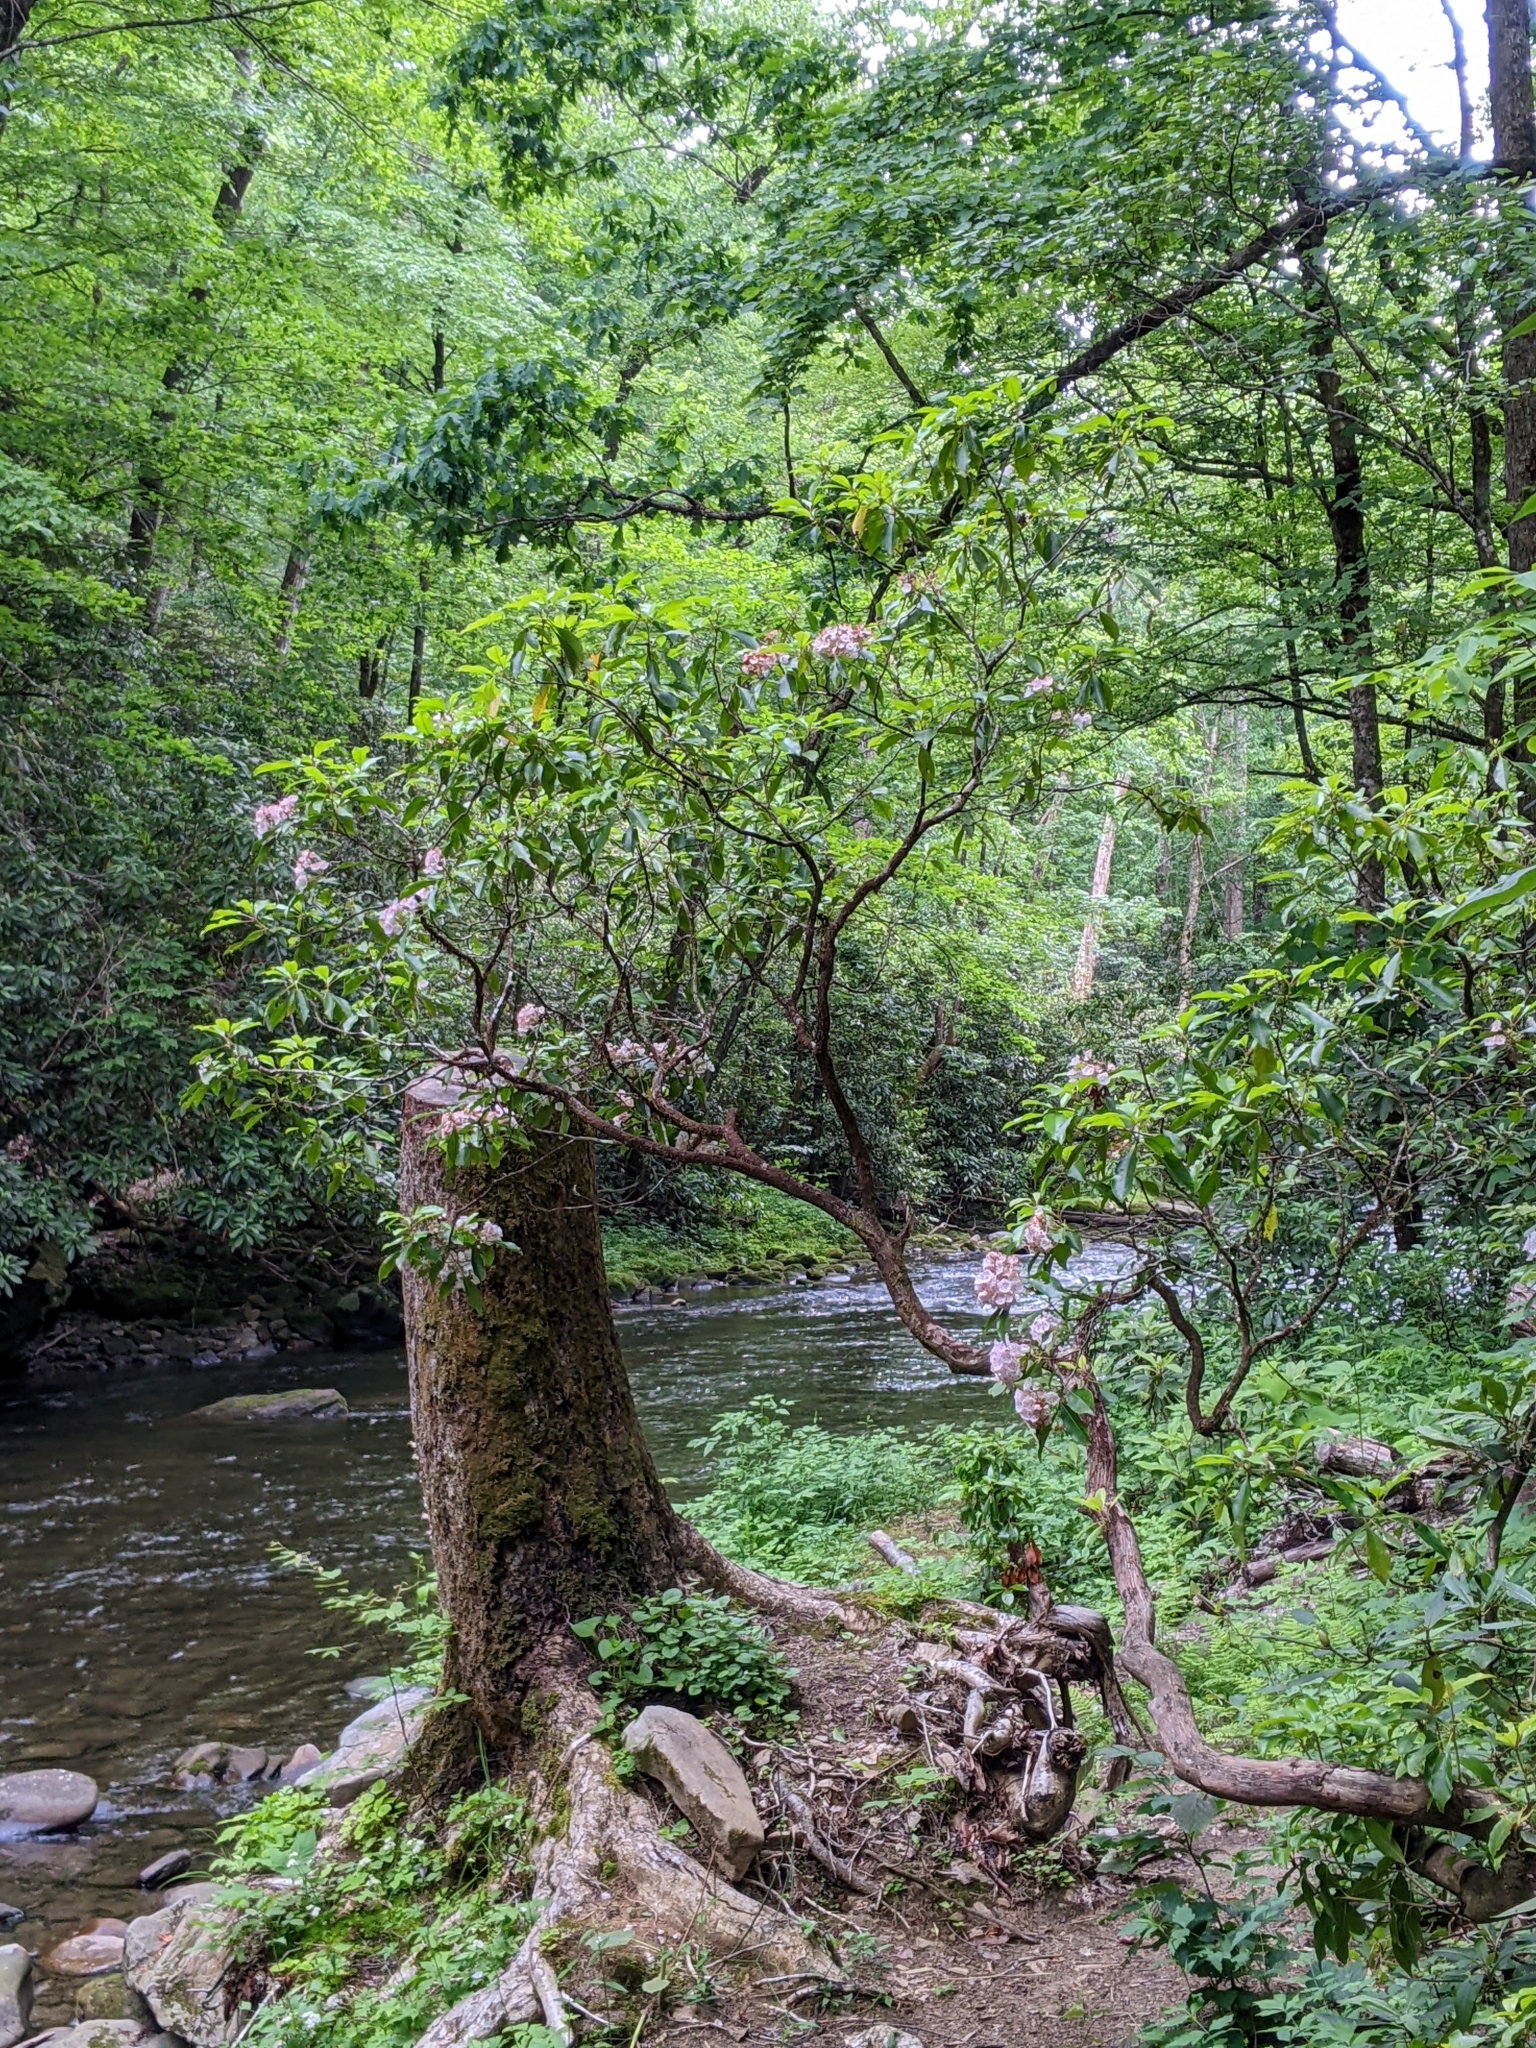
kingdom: Plantae
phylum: Tracheophyta
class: Magnoliopsida
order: Ericales
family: Ericaceae
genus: Kalmia
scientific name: Kalmia latifolia
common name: Mountain-laurel
